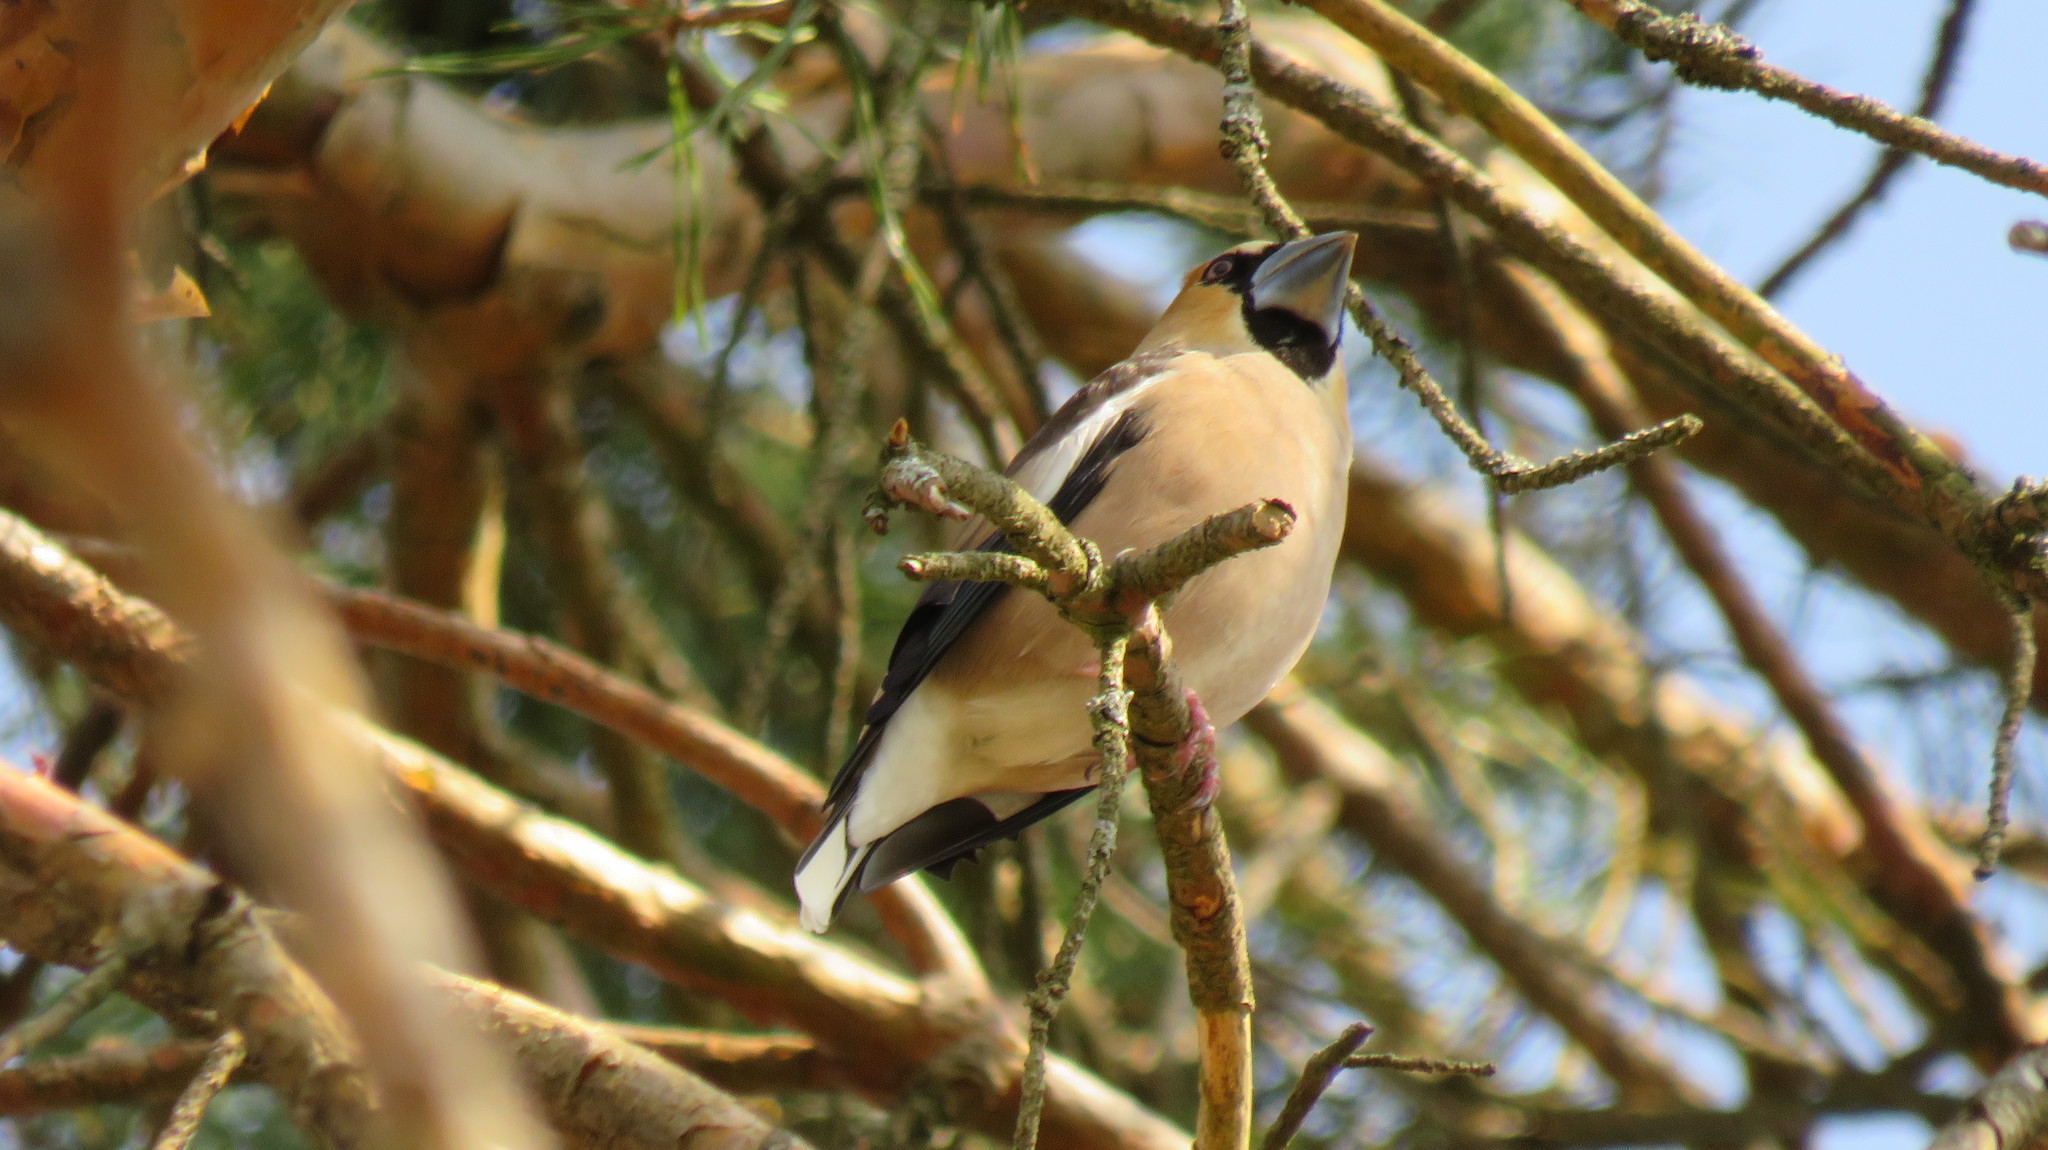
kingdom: Animalia
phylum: Chordata
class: Aves
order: Passeriformes
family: Fringillidae
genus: Coccothraustes
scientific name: Coccothraustes coccothraustes
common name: Hawfinch
